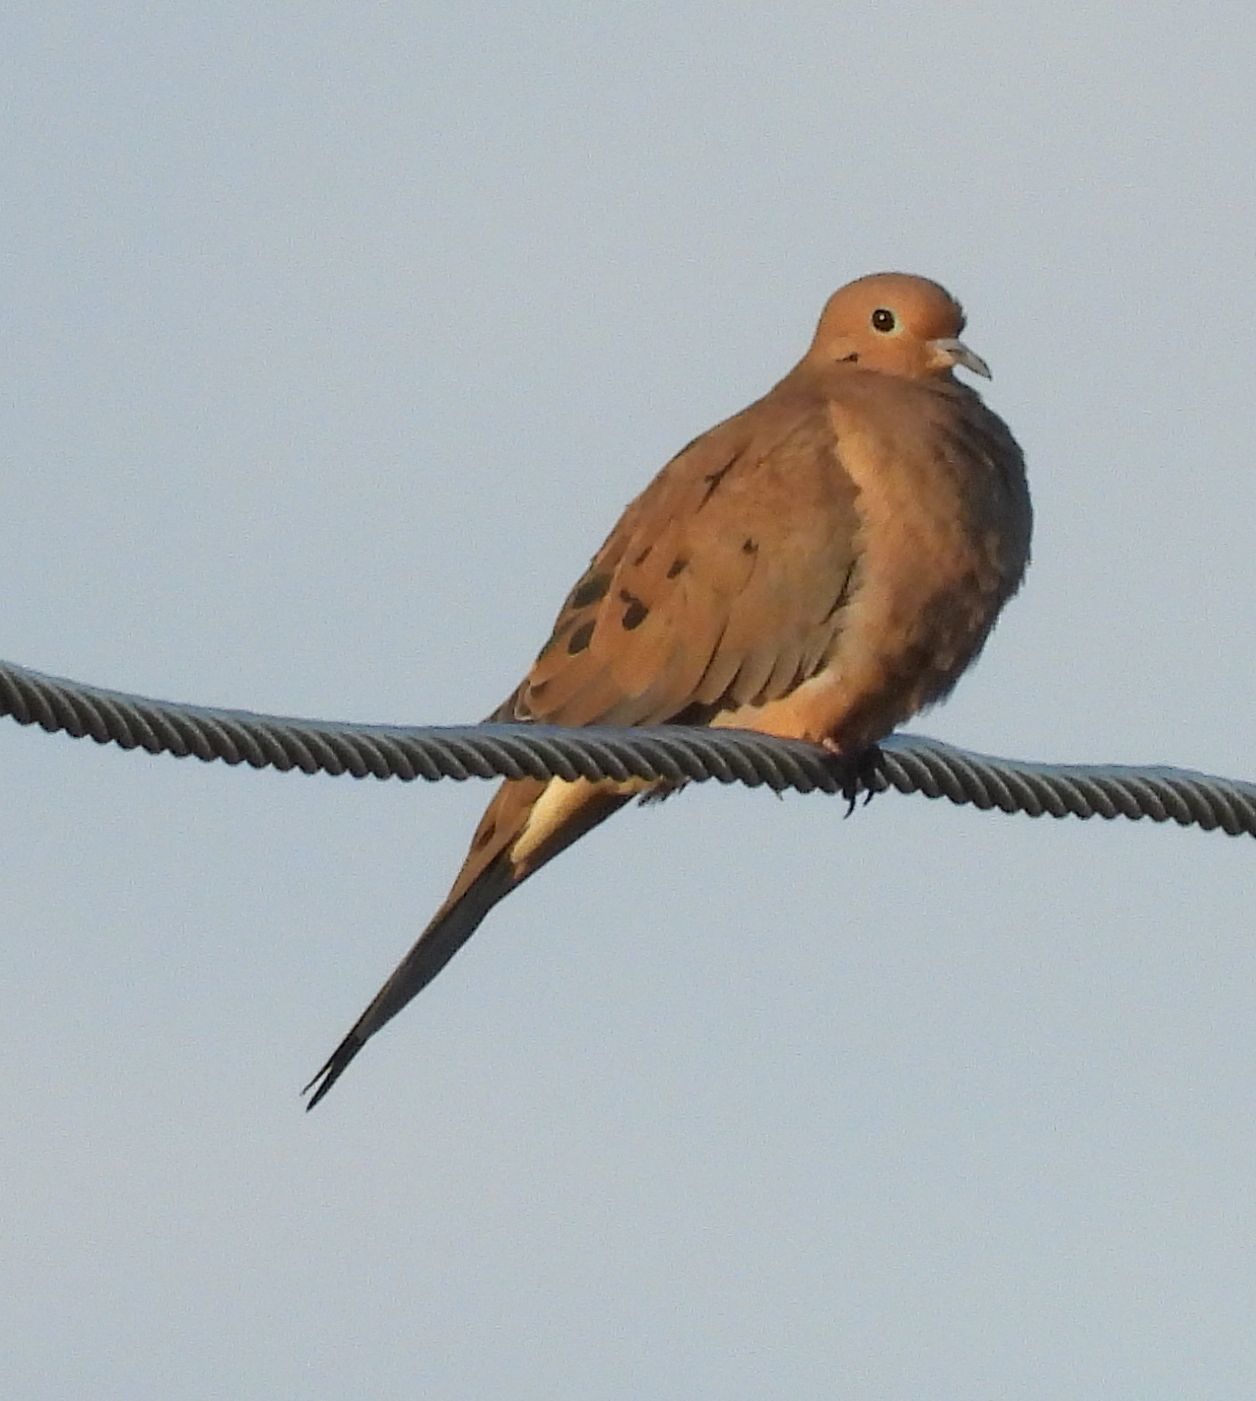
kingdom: Animalia
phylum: Chordata
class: Aves
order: Columbiformes
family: Columbidae
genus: Zenaida
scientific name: Zenaida macroura
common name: Mourning dove
